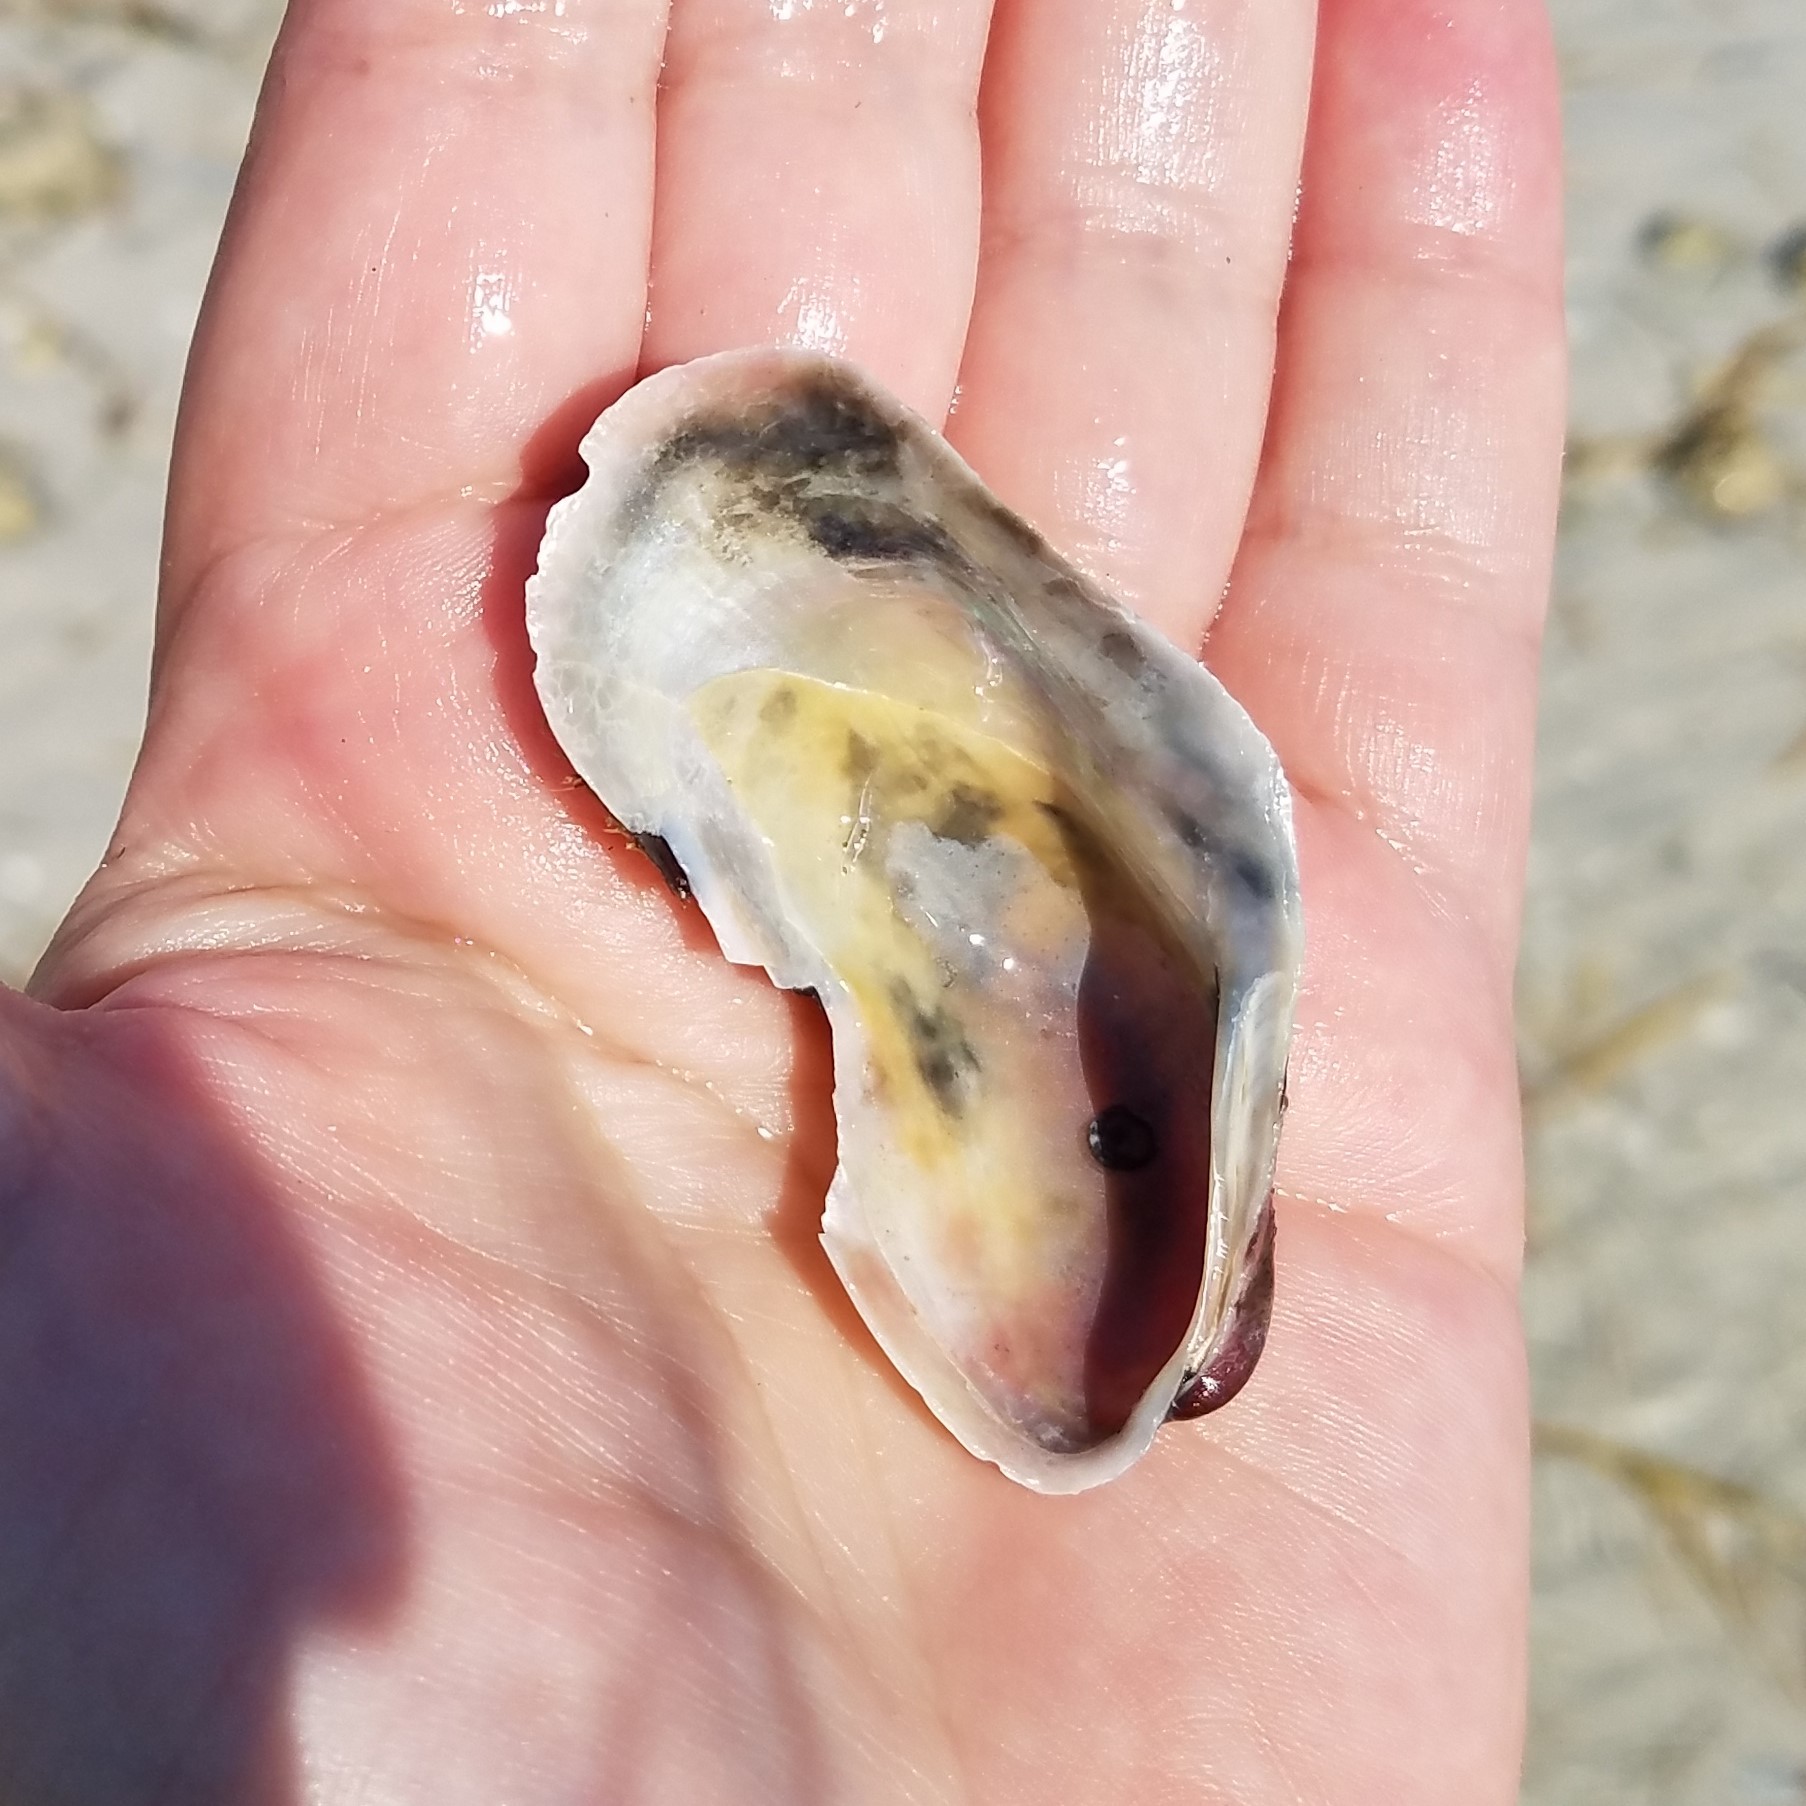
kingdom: Animalia
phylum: Mollusca
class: Bivalvia
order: Mytilida
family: Mytilidae
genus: Modiolus
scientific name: Modiolus americanus
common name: Tulip mussel
